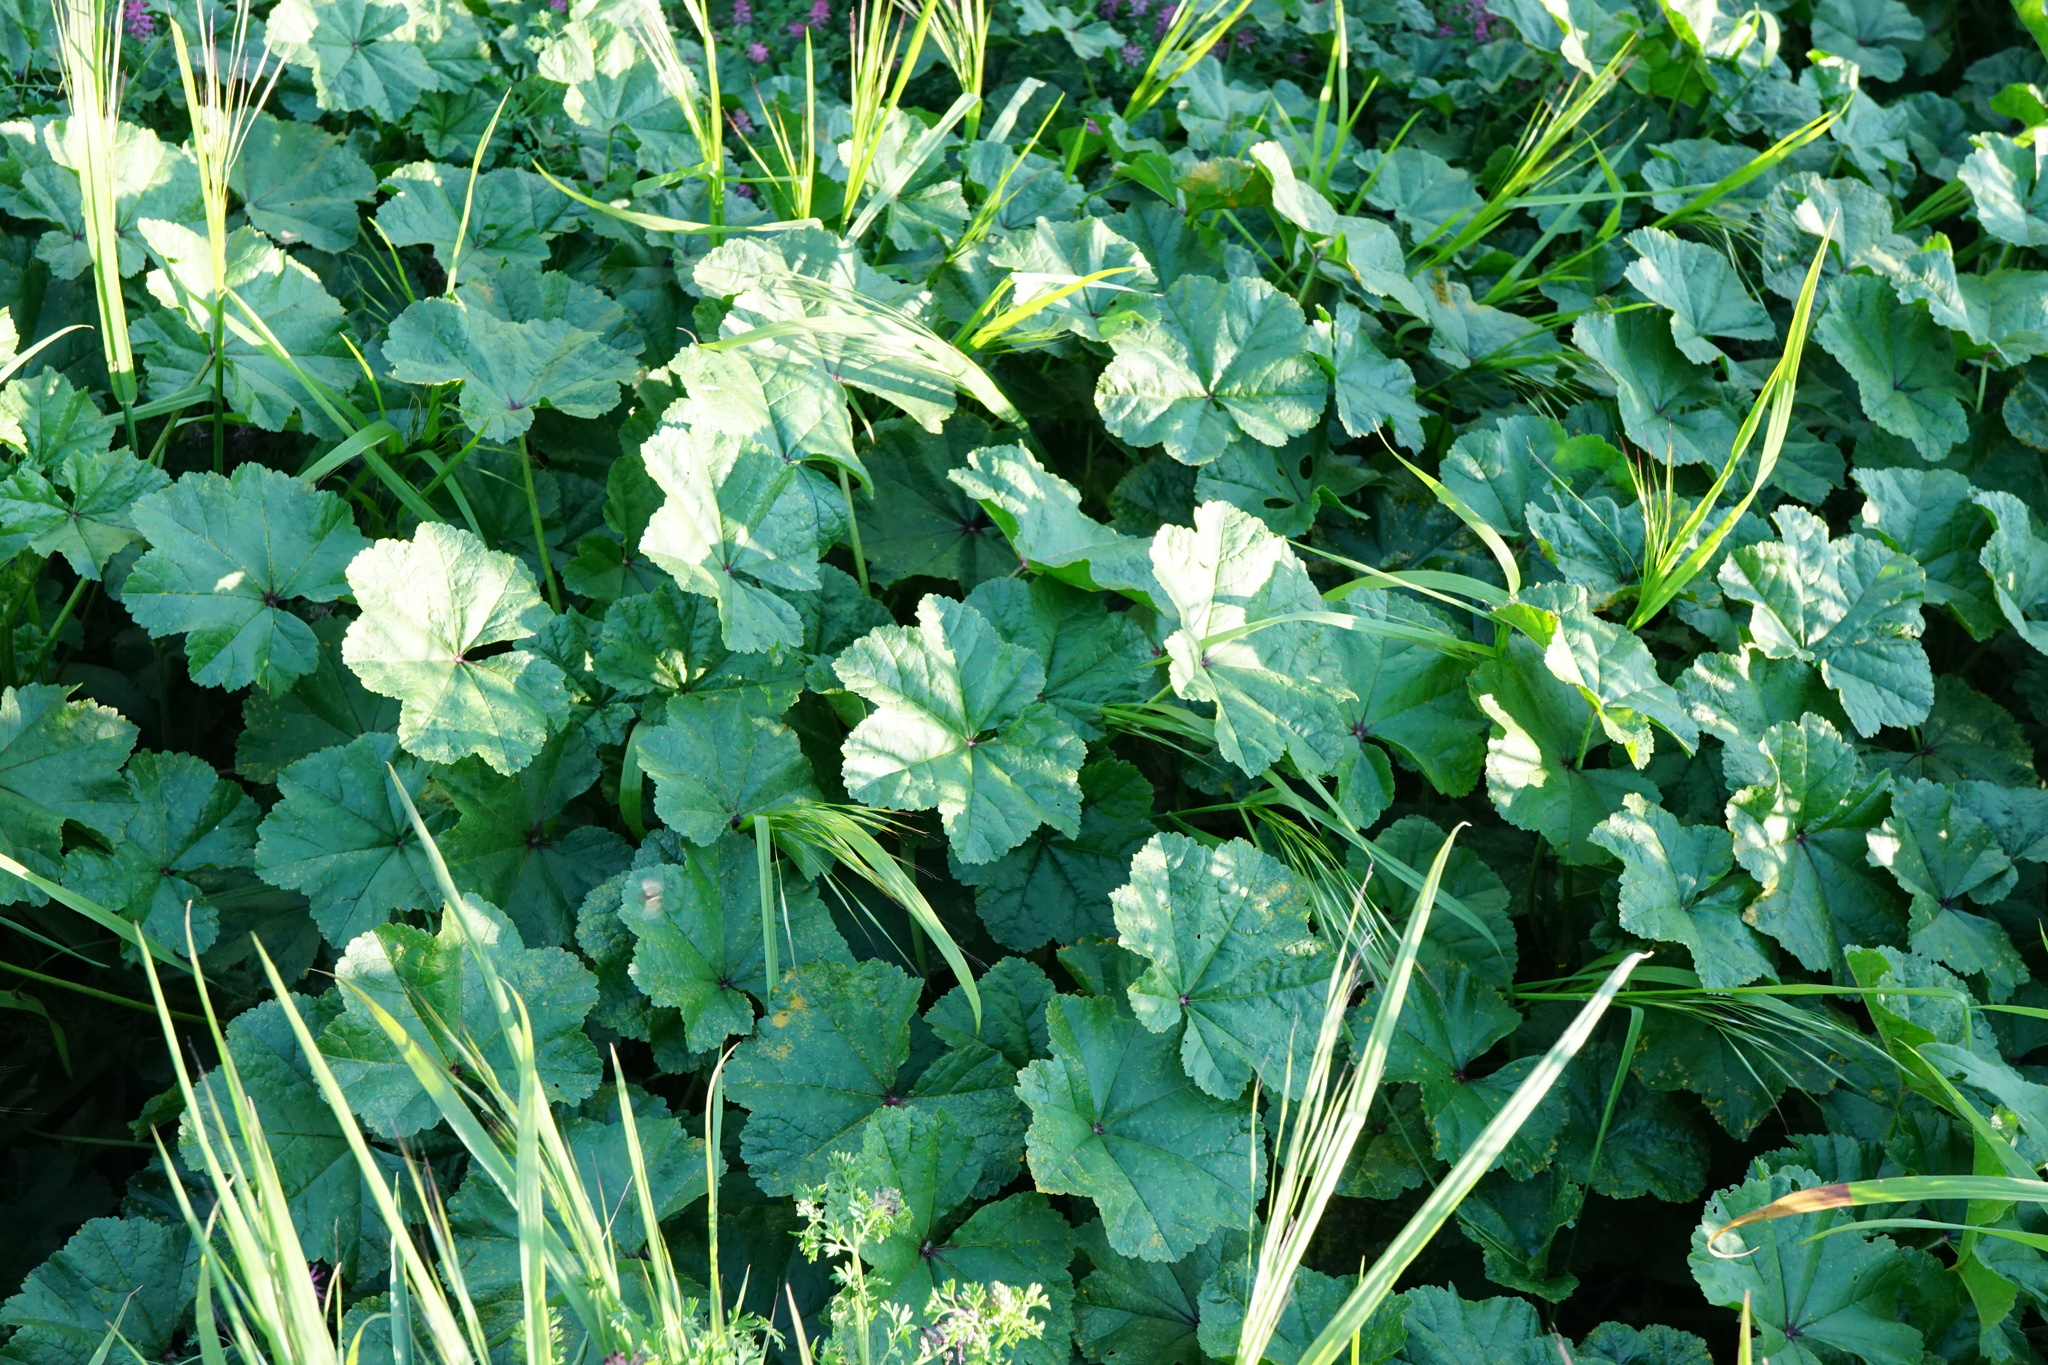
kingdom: Plantae
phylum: Tracheophyta
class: Magnoliopsida
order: Malvales
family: Malvaceae
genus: Malva
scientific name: Malva sylvestris
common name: Common mallow
